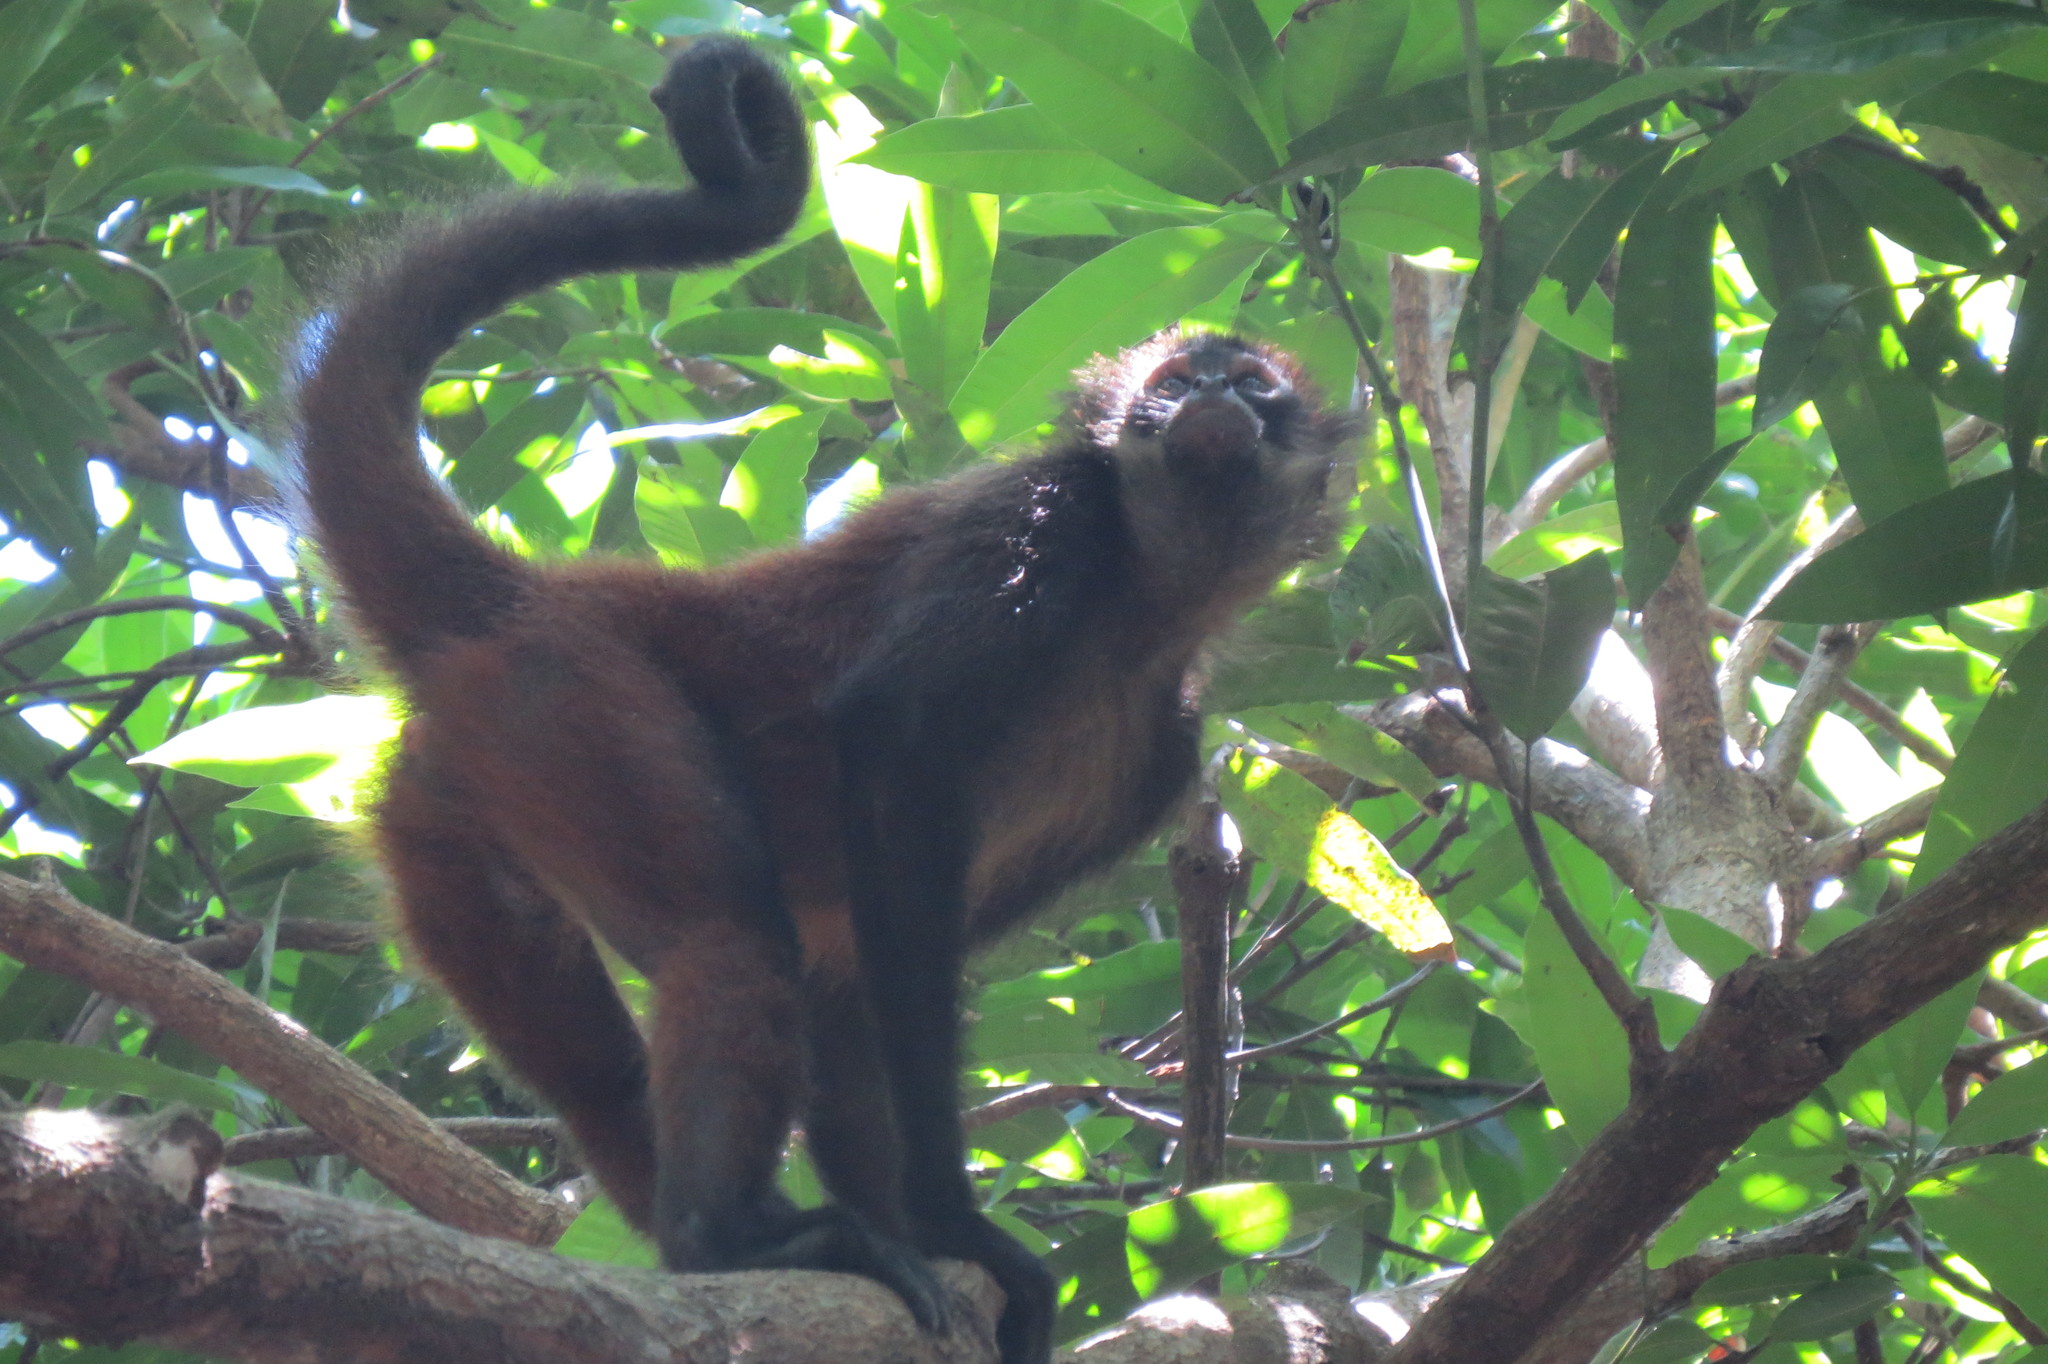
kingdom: Animalia
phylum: Chordata
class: Mammalia
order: Primates
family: Atelidae
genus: Ateles
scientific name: Ateles geoffroyi
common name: Black-handed spider monkey
